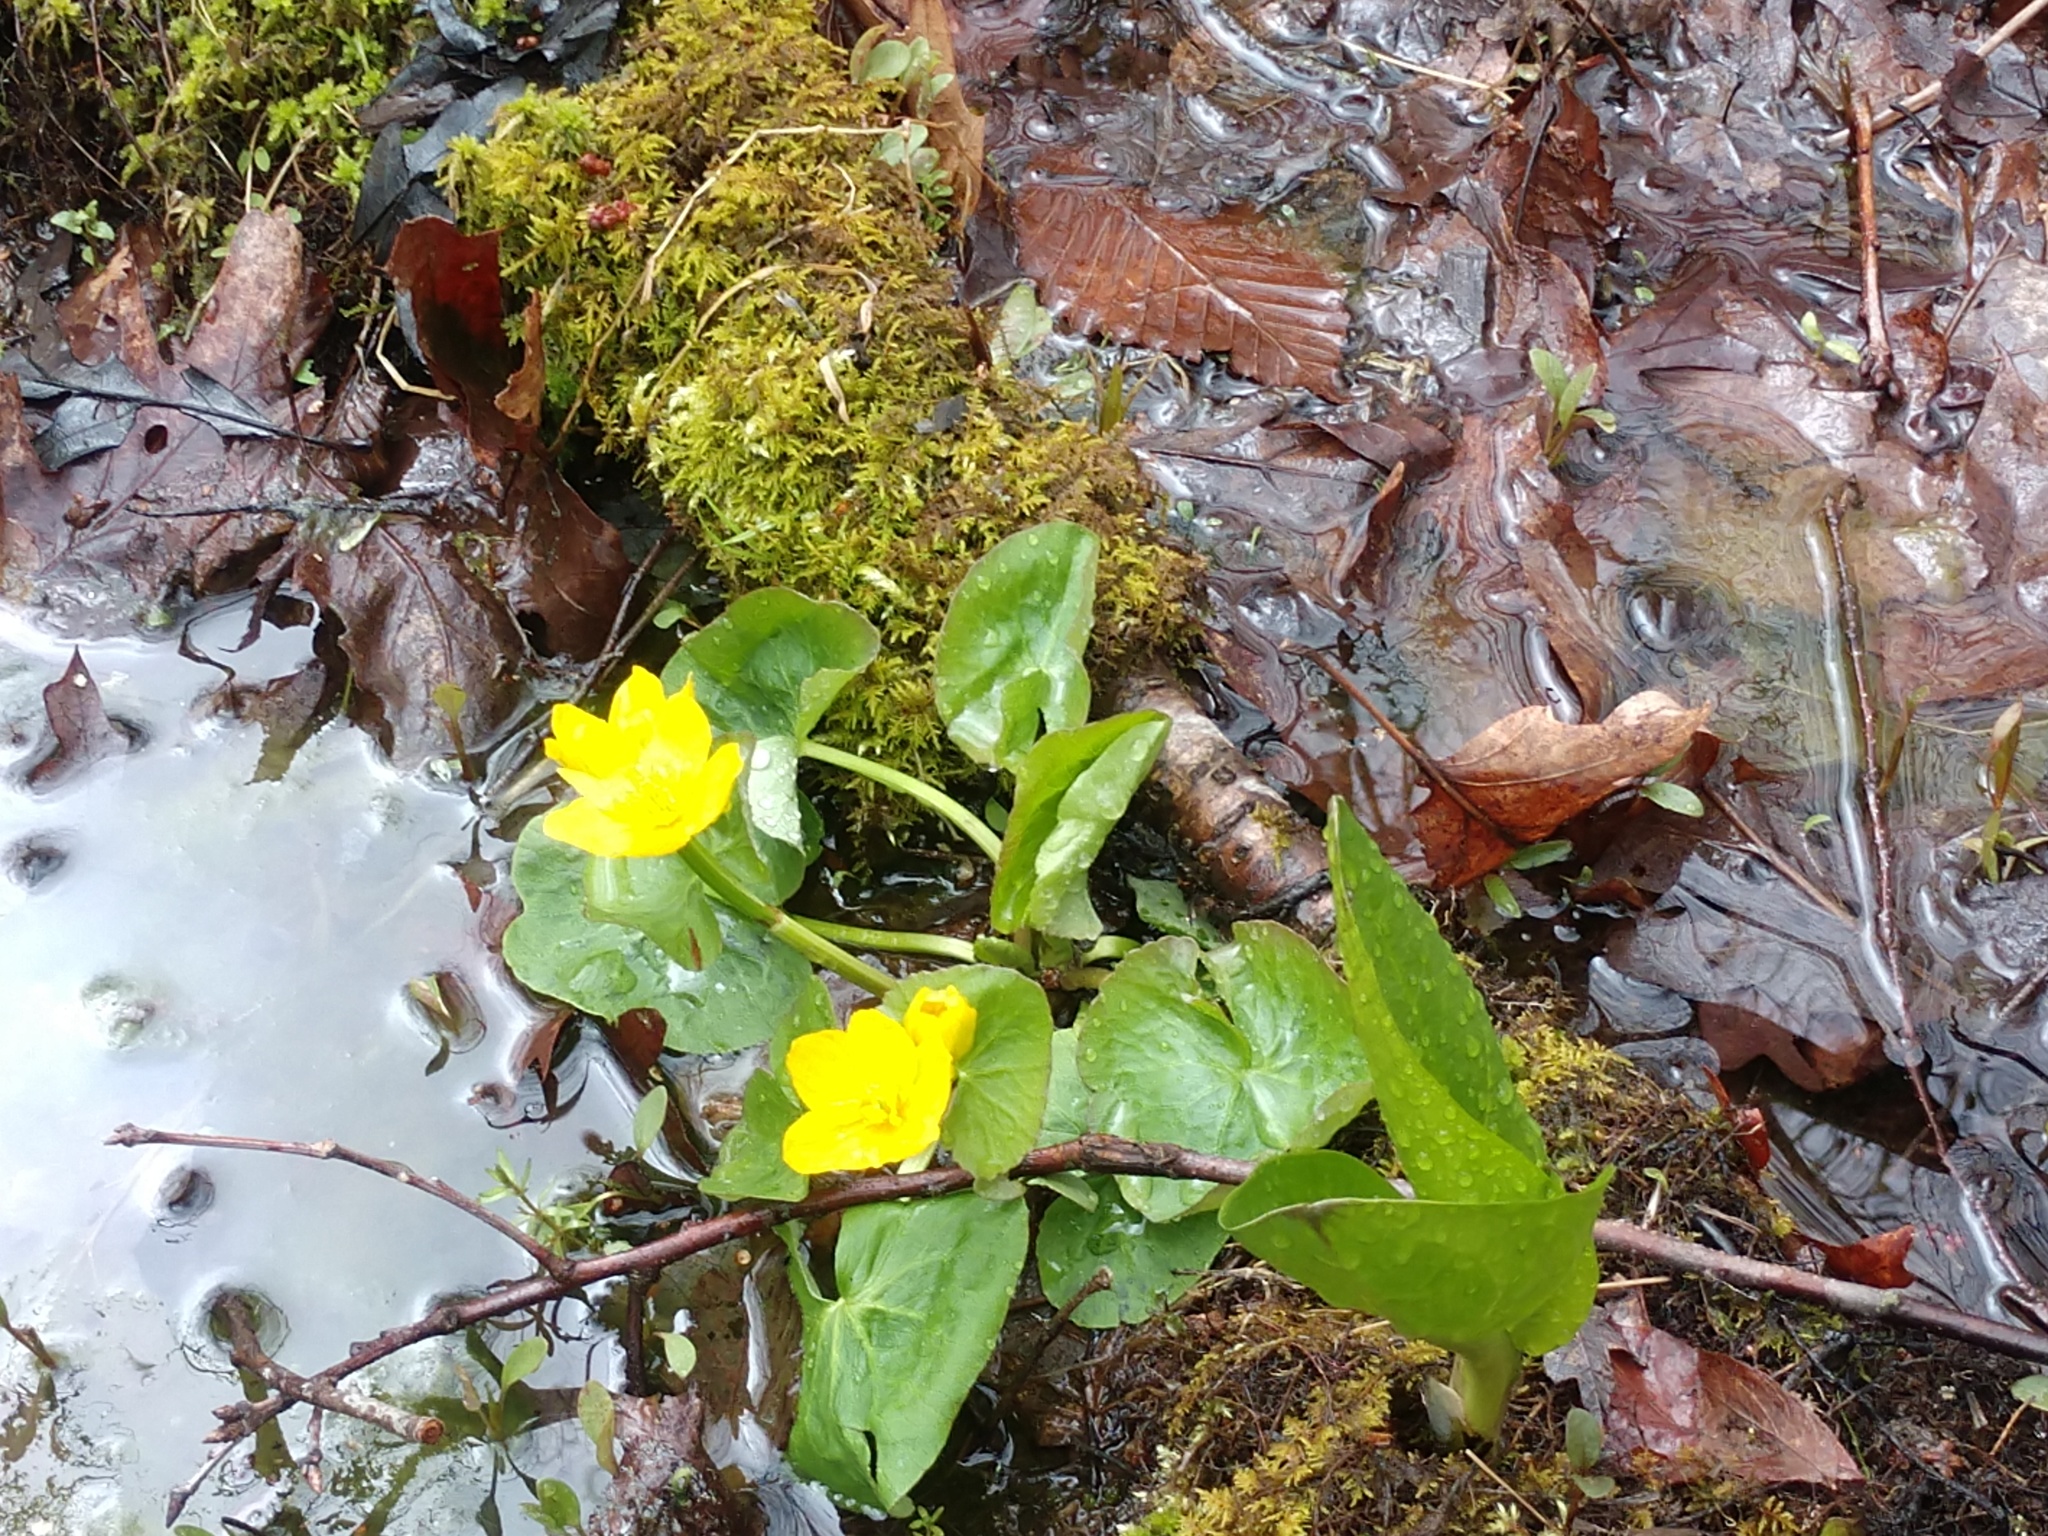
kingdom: Plantae
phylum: Tracheophyta
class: Magnoliopsida
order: Ranunculales
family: Ranunculaceae
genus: Caltha
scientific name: Caltha palustris
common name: Marsh marigold
